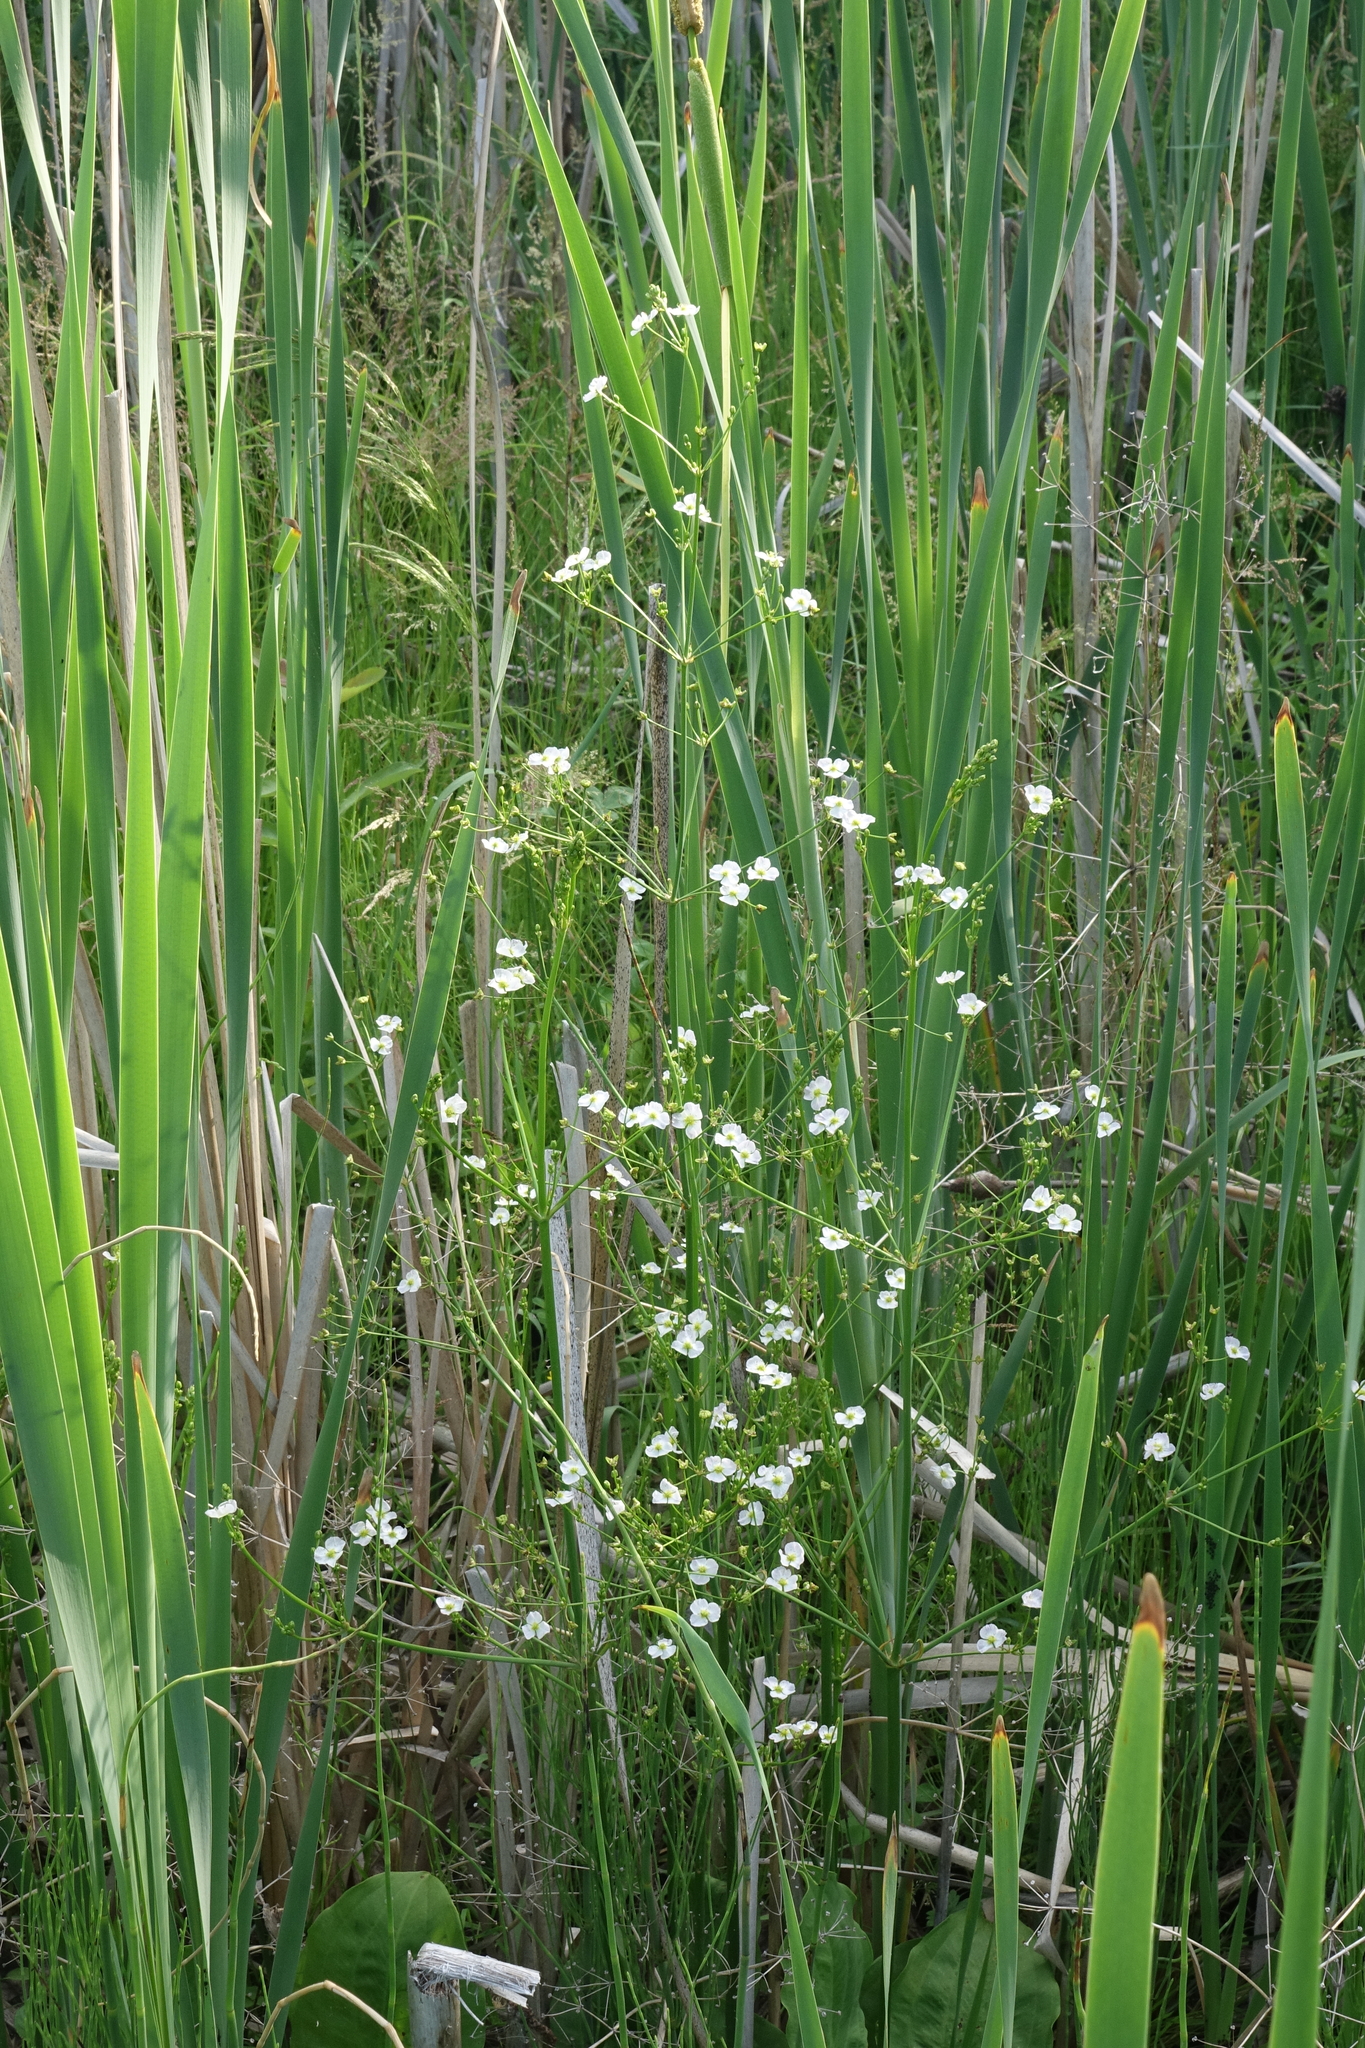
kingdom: Plantae
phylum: Tracheophyta
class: Liliopsida
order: Alismatales
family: Alismataceae
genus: Alisma
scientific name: Alisma plantago-aquatica
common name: Water-plantain
